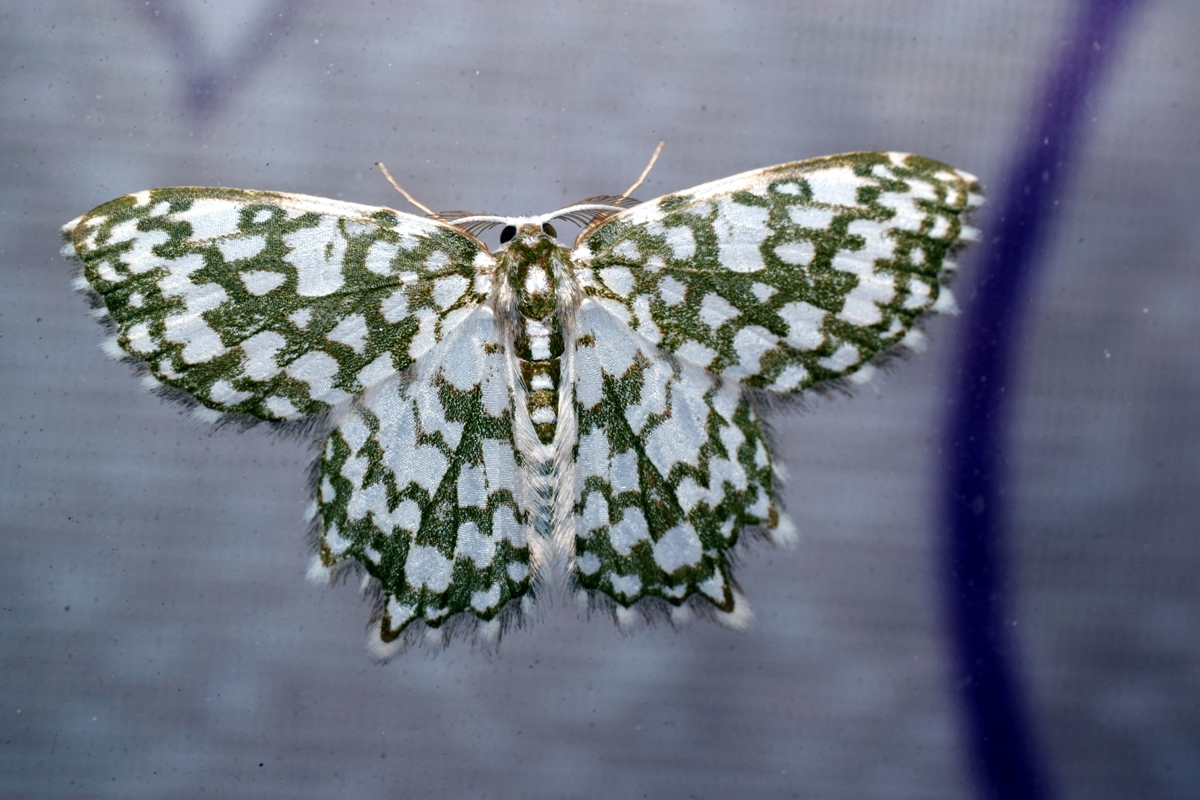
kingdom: Animalia
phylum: Arthropoda
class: Insecta
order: Lepidoptera
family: Geometridae
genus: Berta
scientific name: Berta copiosa
